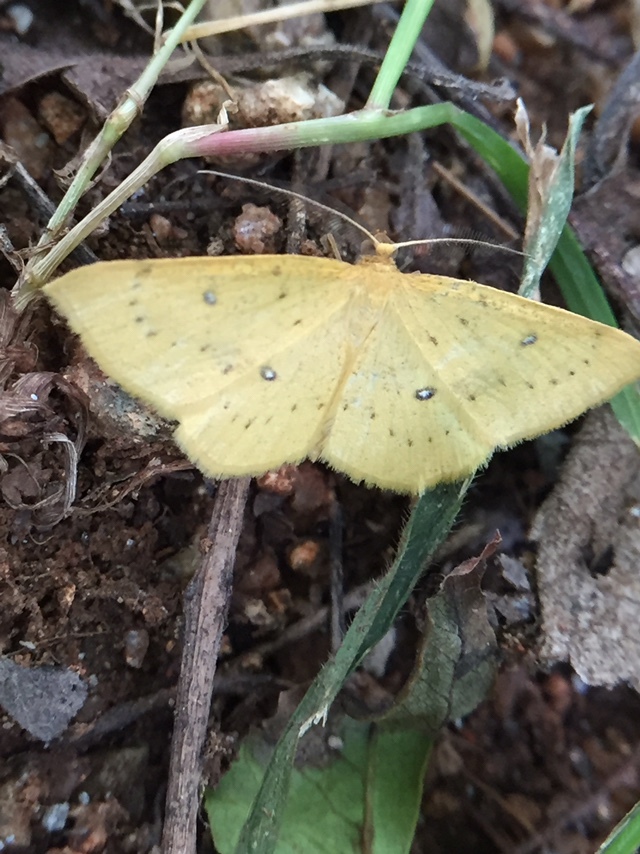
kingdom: Animalia
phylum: Arthropoda
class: Insecta
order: Lepidoptera
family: Geometridae
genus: Palaeaspilates
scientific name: Palaeaspilates Anisephyra ocularia
